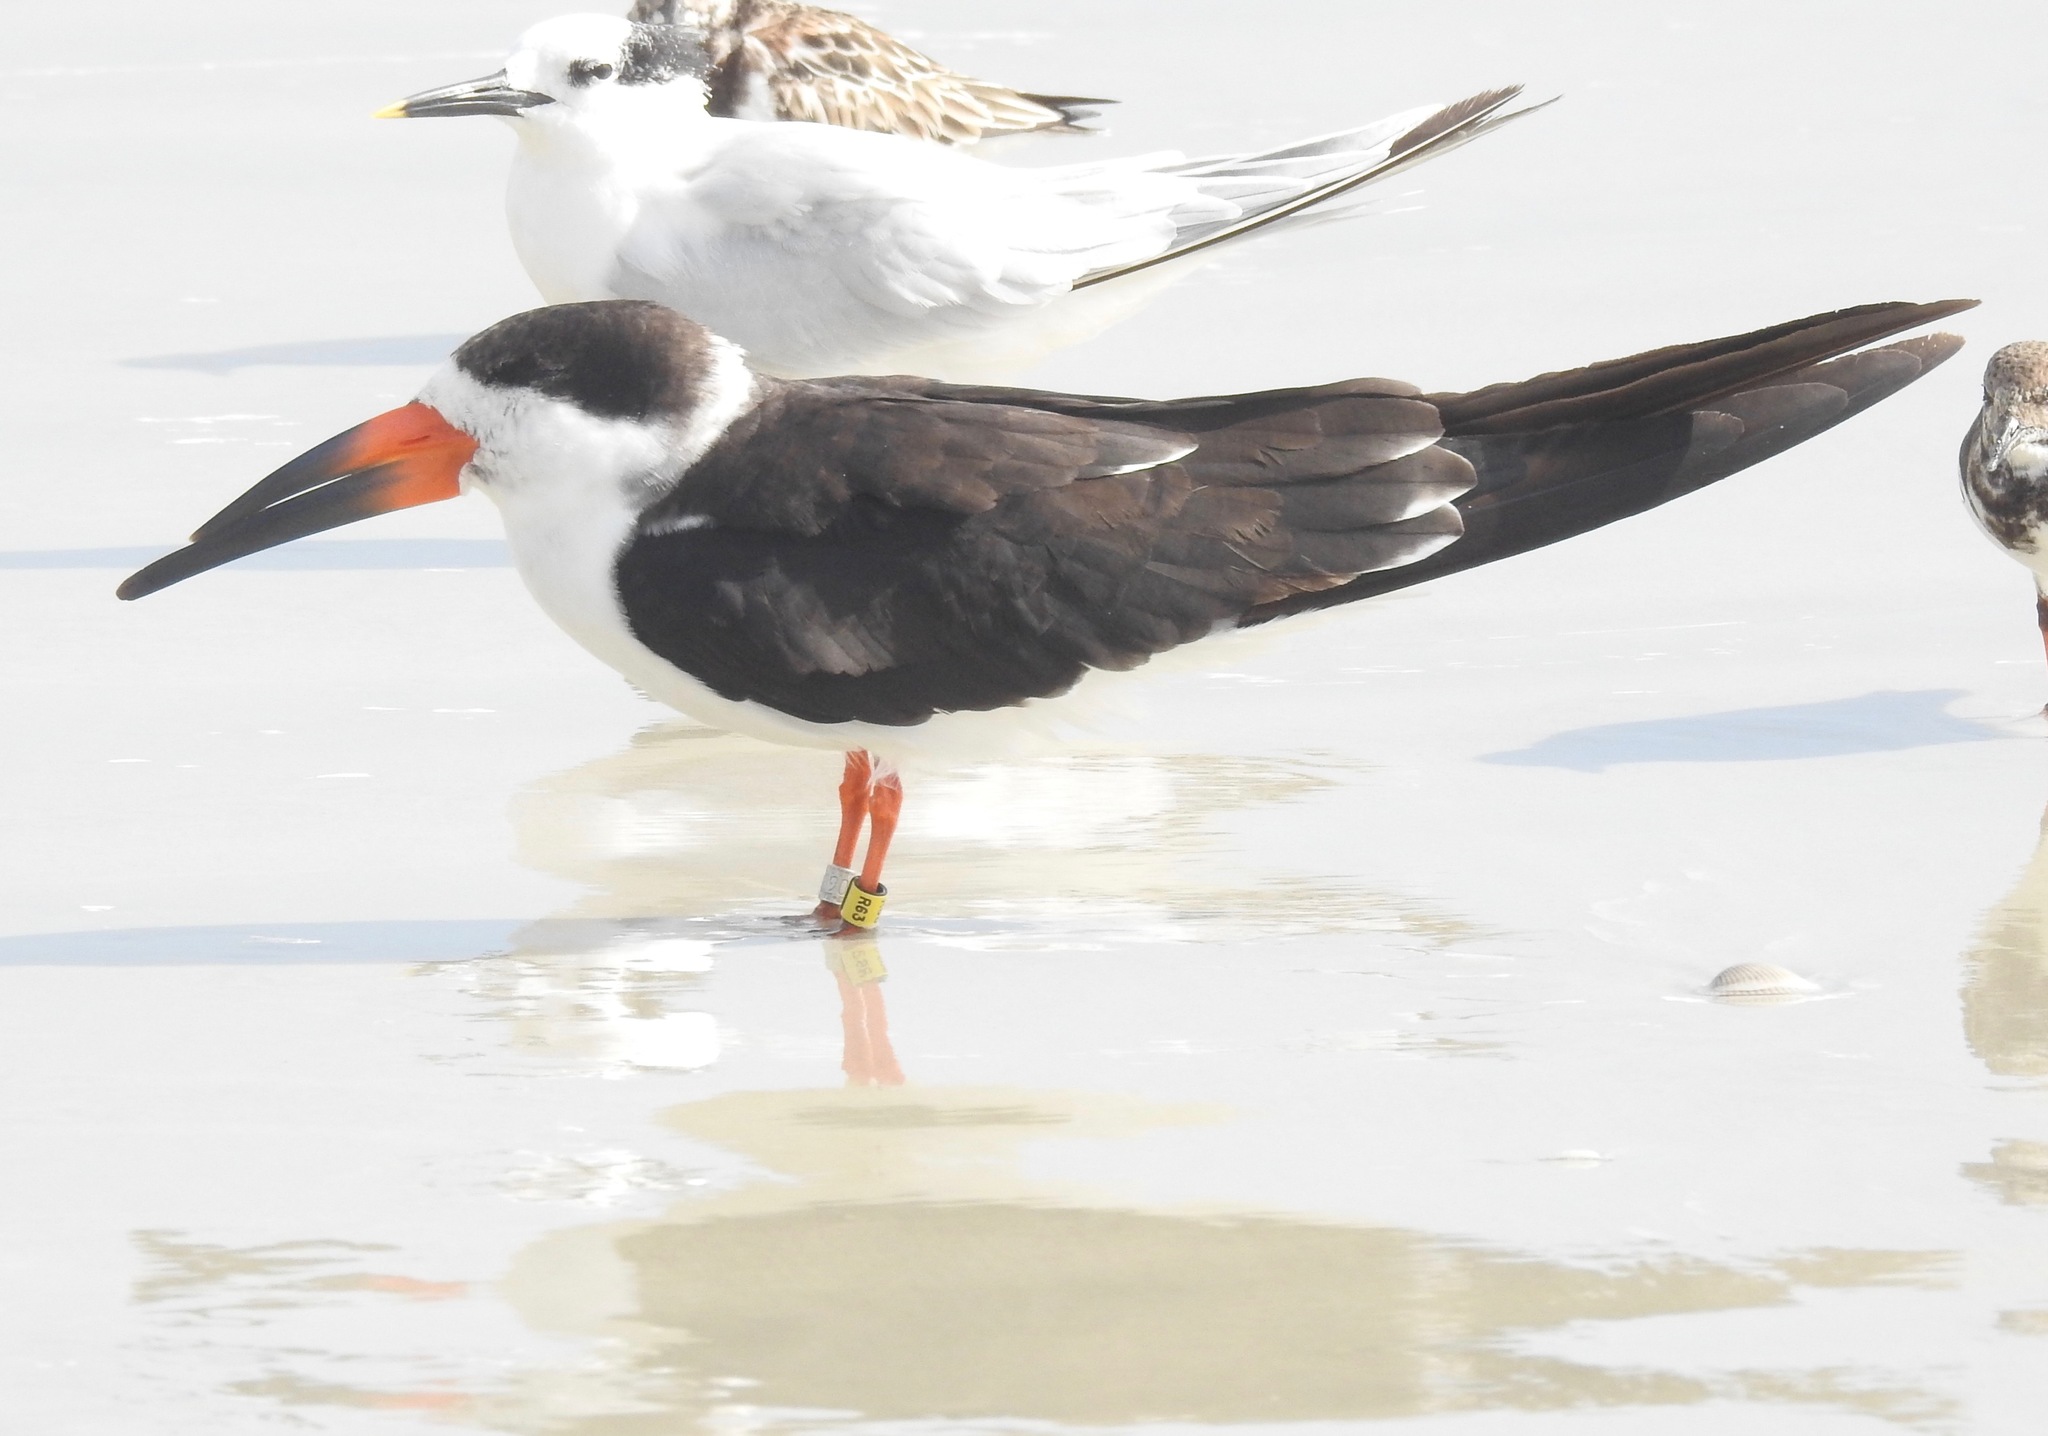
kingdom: Animalia
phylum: Chordata
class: Aves
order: Charadriiformes
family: Laridae
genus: Rynchops
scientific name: Rynchops niger
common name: Black skimmer
